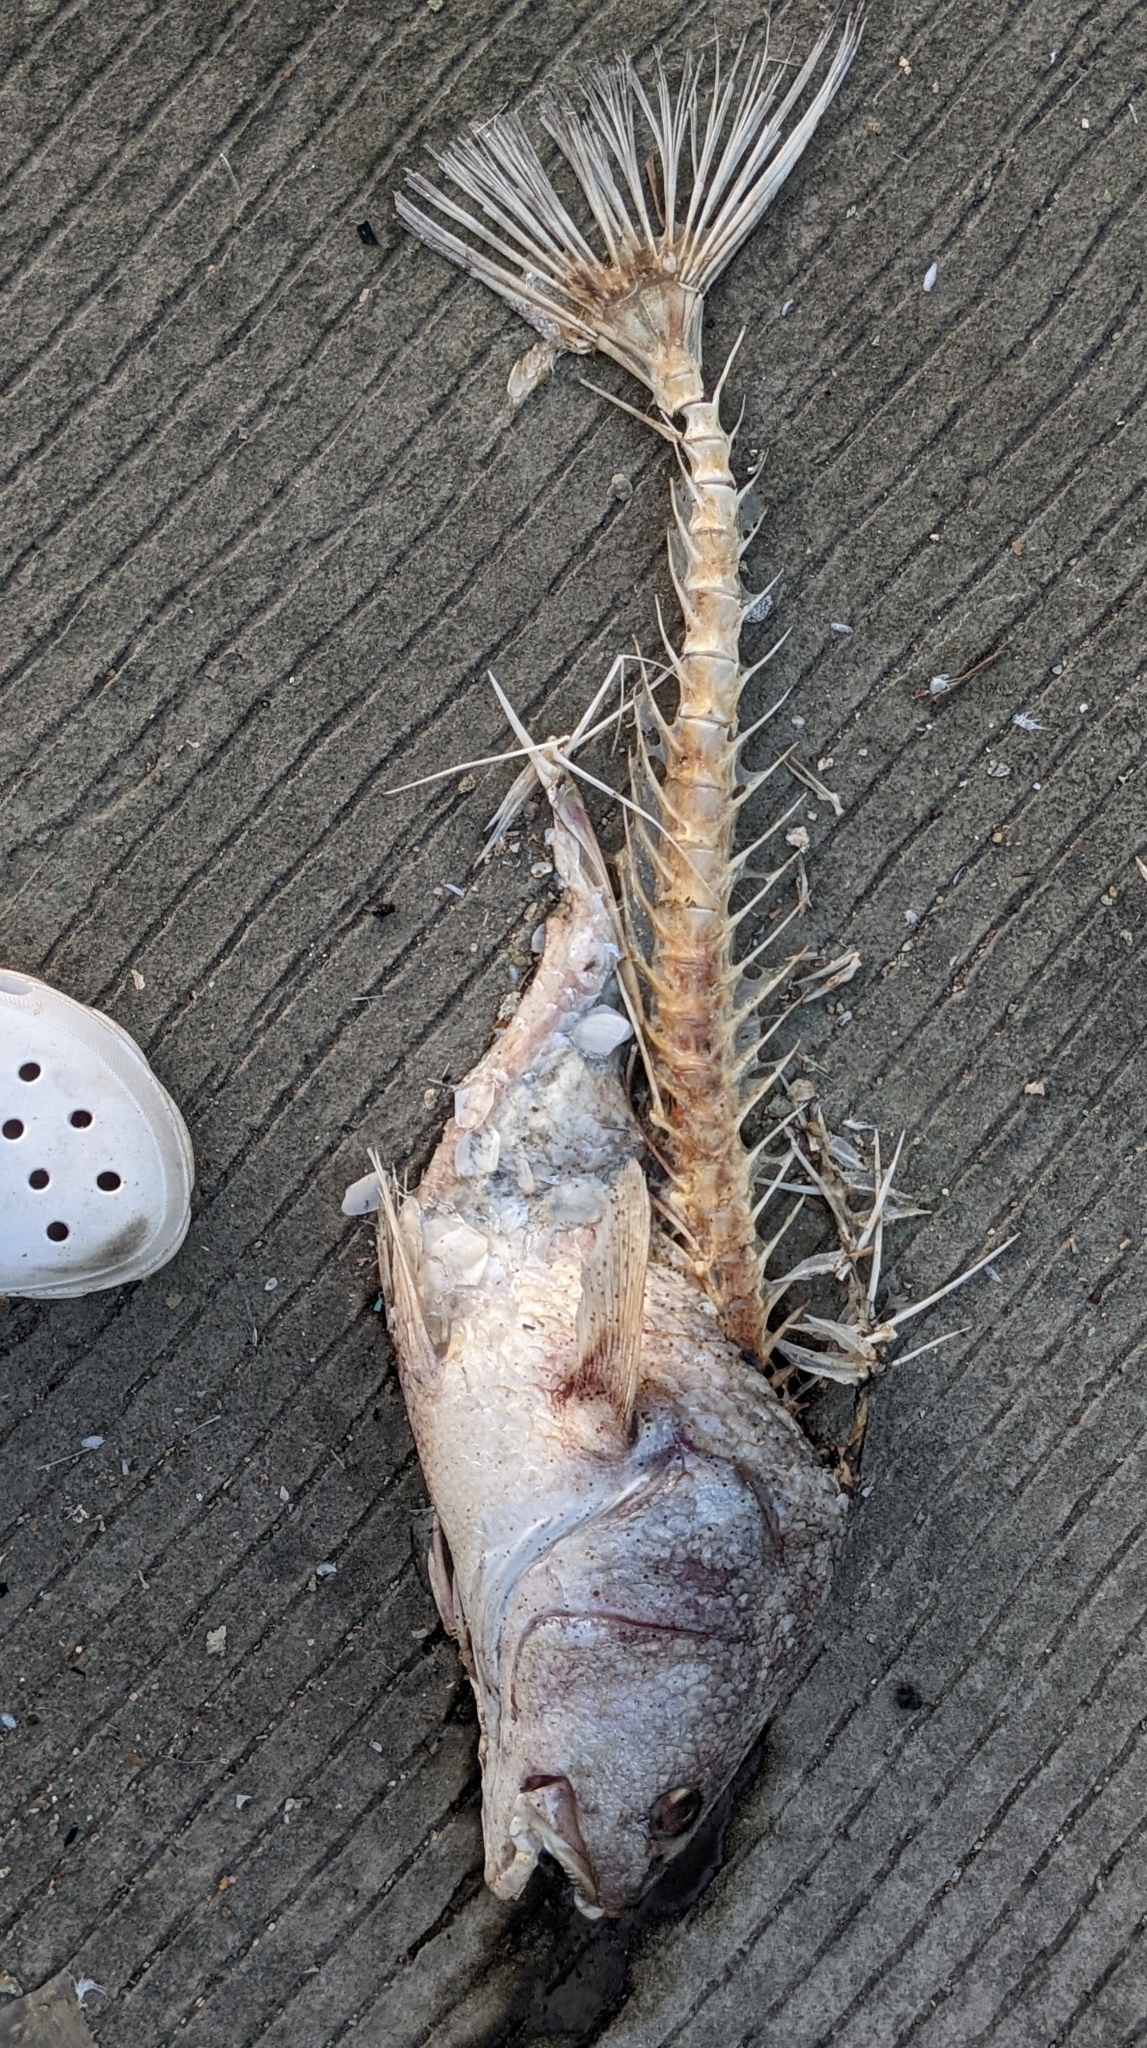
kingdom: Animalia
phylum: Chordata
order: Perciformes
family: Sciaenidae
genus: Sciaenops
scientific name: Sciaenops ocellatus
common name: Red drum
